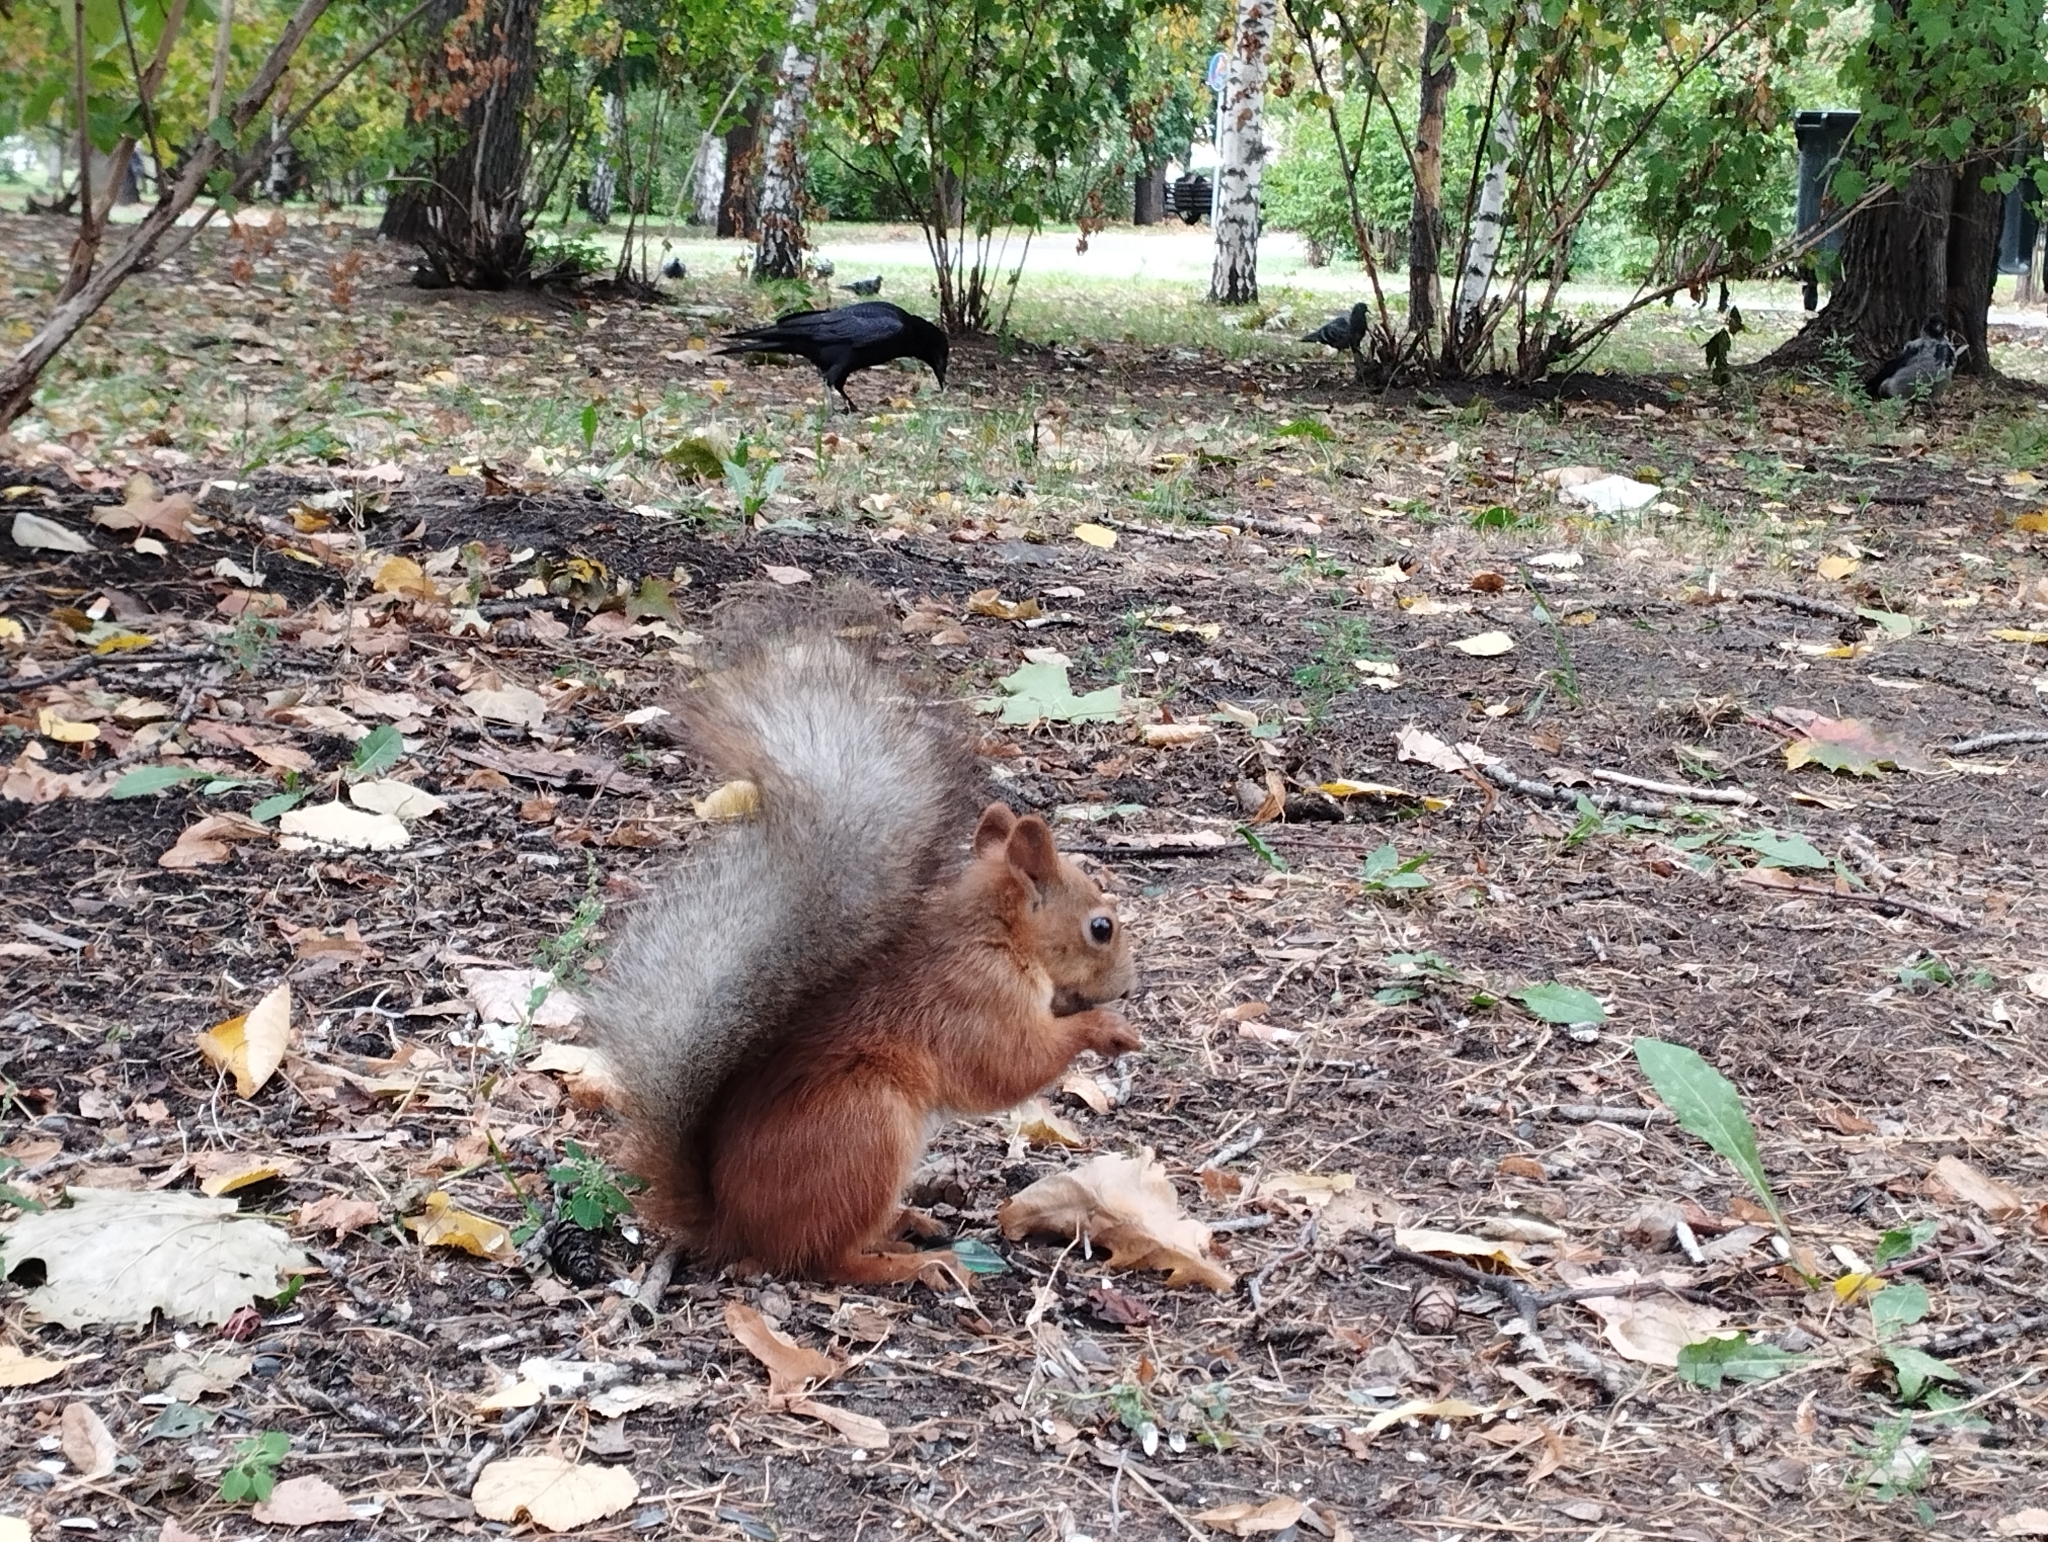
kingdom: Animalia
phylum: Chordata
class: Mammalia
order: Rodentia
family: Sciuridae
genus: Sciurus
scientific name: Sciurus vulgaris
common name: Eurasian red squirrel
